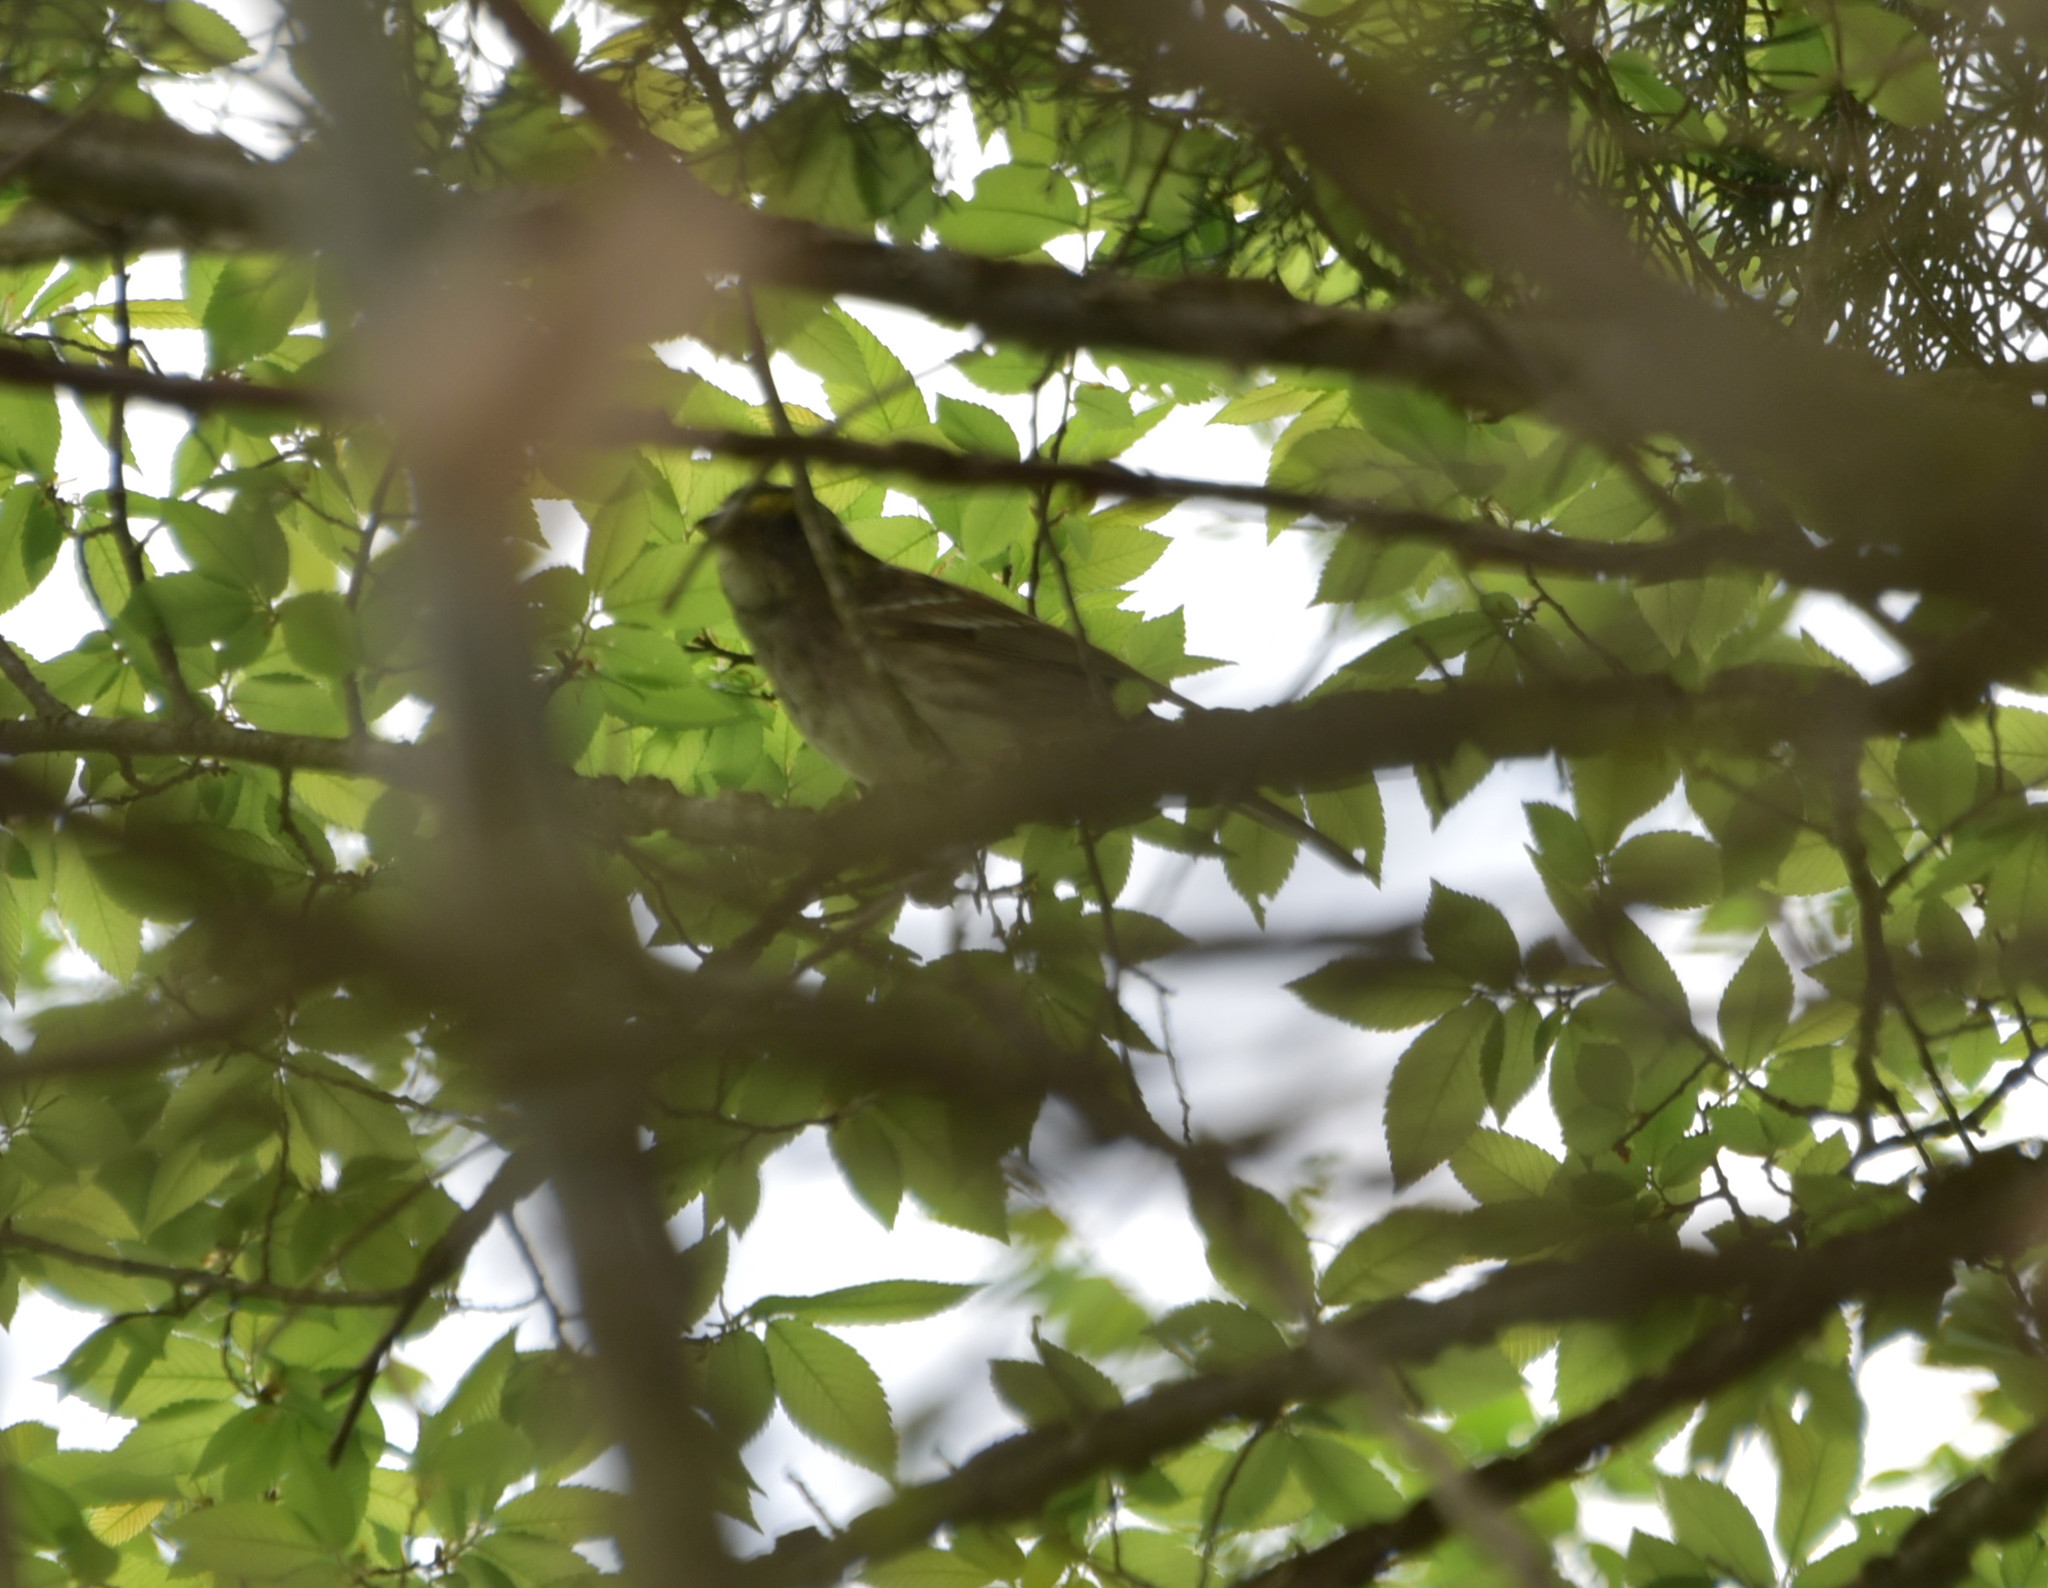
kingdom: Animalia
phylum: Chordata
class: Aves
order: Passeriformes
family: Passerellidae
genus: Zonotrichia
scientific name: Zonotrichia albicollis
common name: White-throated sparrow
